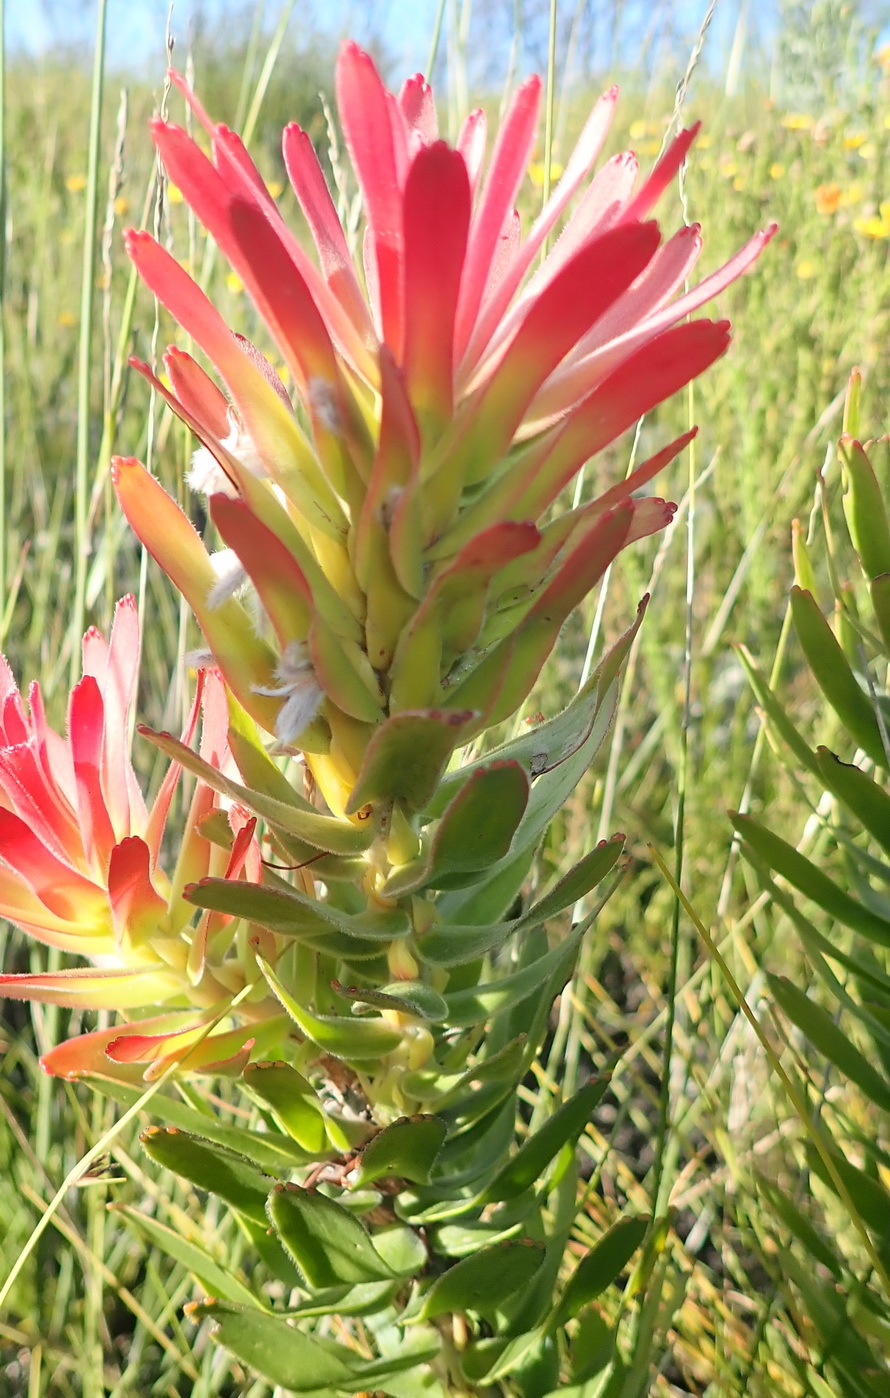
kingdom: Plantae
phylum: Tracheophyta
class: Magnoliopsida
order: Proteales
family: Proteaceae
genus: Mimetes
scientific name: Mimetes cucullatus
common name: Common pagoda
